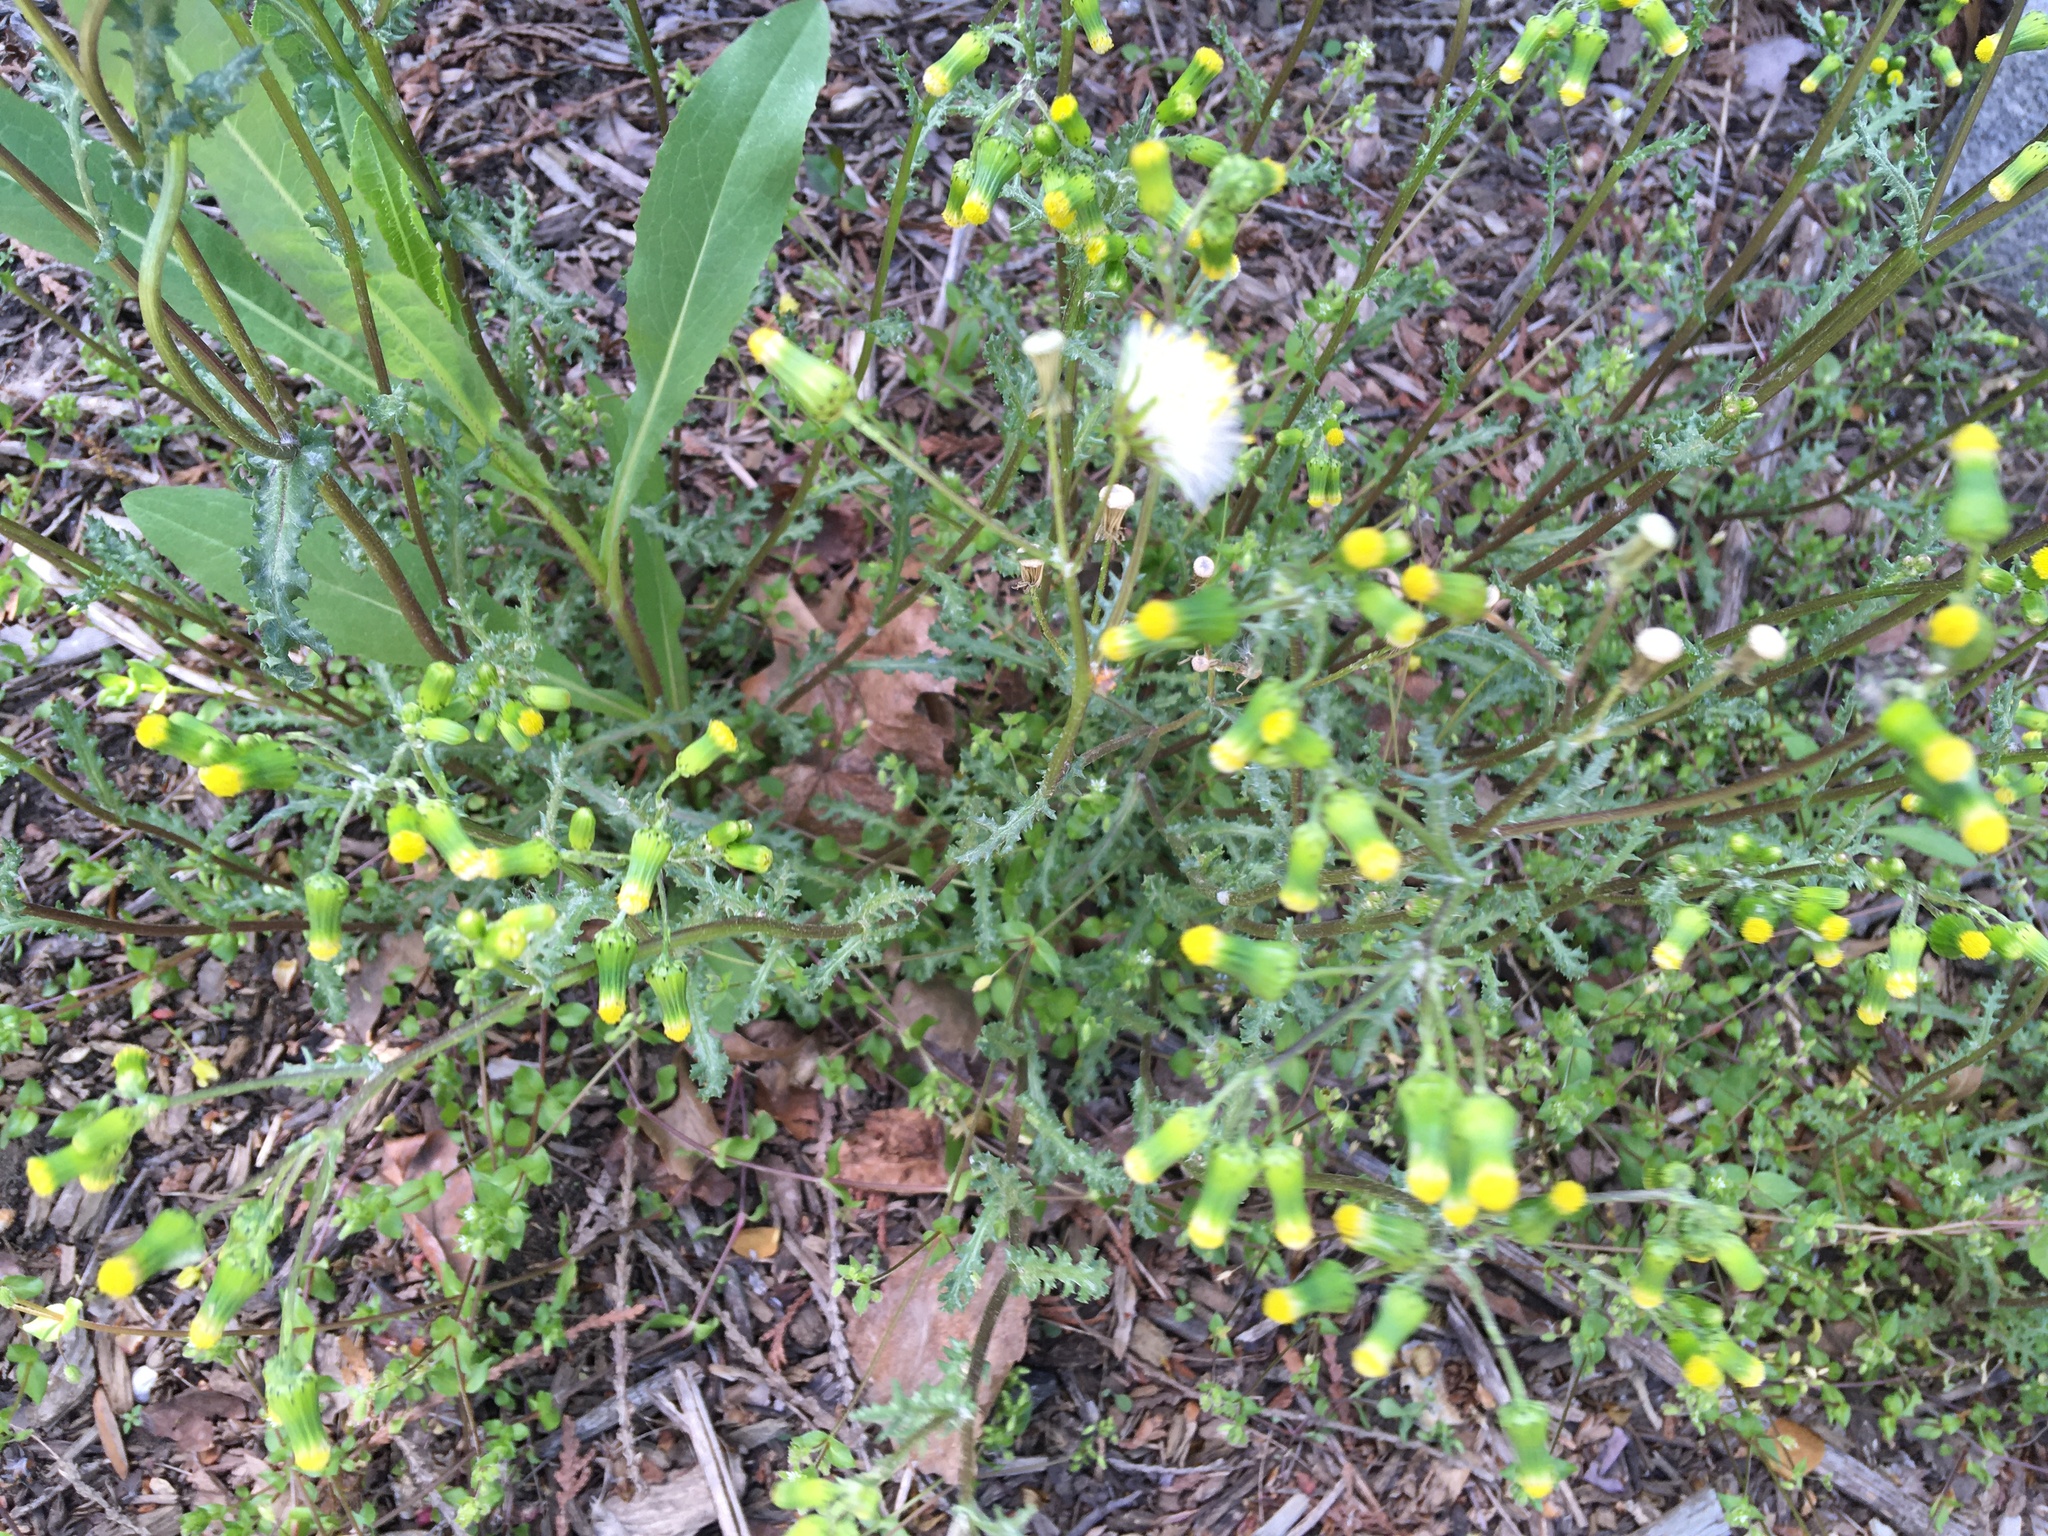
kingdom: Plantae
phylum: Tracheophyta
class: Magnoliopsida
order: Asterales
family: Asteraceae
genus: Senecio
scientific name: Senecio vulgaris
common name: Old-man-in-the-spring
